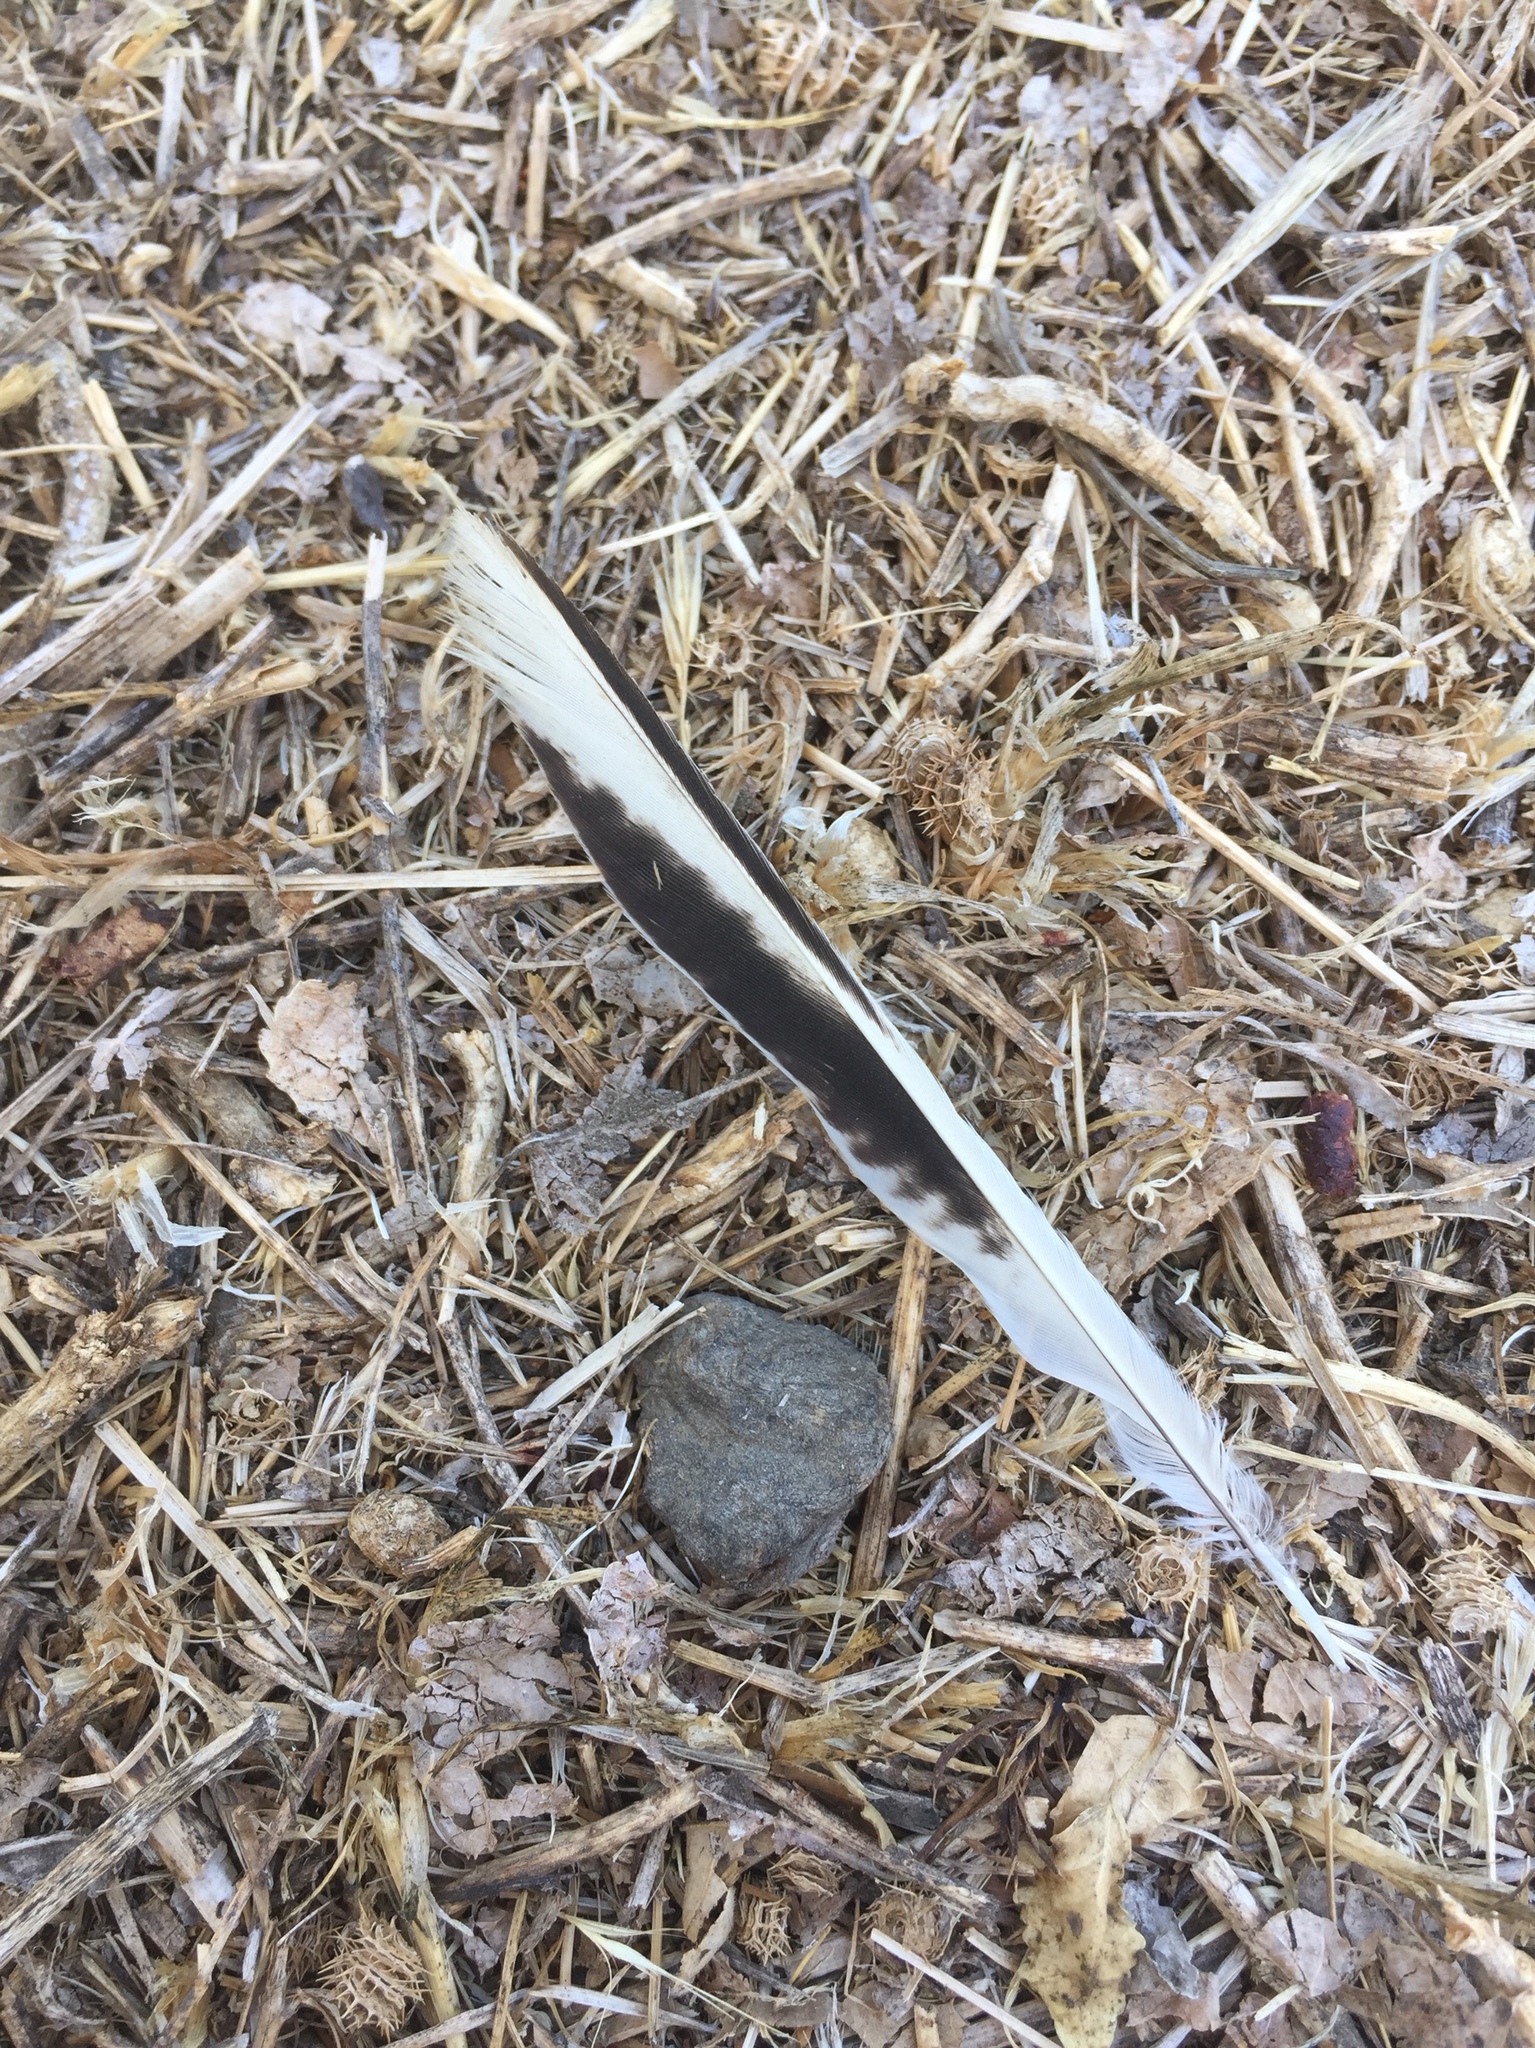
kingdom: Animalia
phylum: Chordata
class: Aves
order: Passeriformes
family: Mimidae
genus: Mimus
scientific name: Mimus polyglottos
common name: Northern mockingbird
